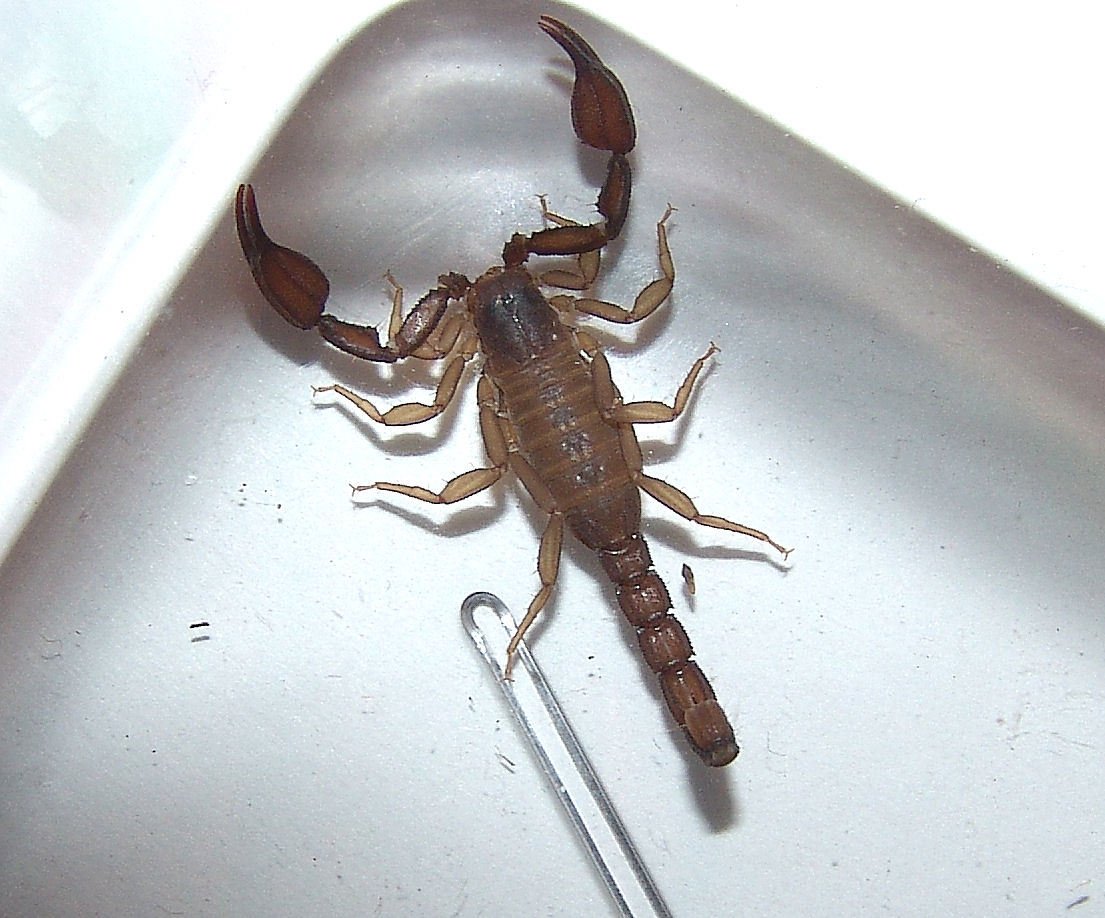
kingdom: Animalia
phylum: Arthropoda
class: Arachnida
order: Scorpiones
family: Vaejovidae
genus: Pseudouroctonus
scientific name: Pseudouroctonus apacheanus
